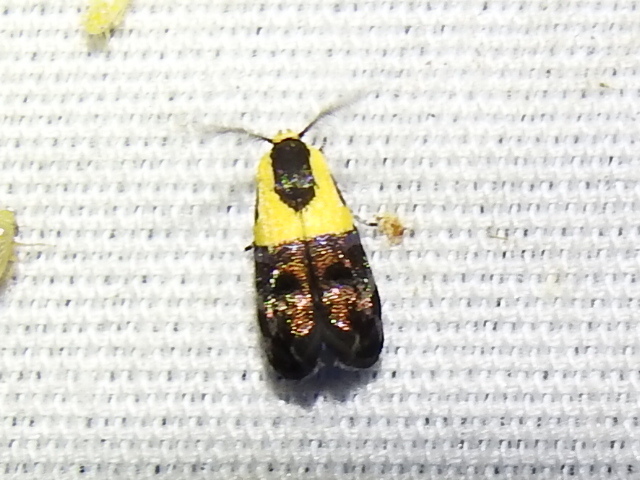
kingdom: Animalia
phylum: Arthropoda
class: Insecta
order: Lepidoptera
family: Depressariidae
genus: Rectiostoma
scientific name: Rectiostoma xanthobasis
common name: Yellow-vested moth
